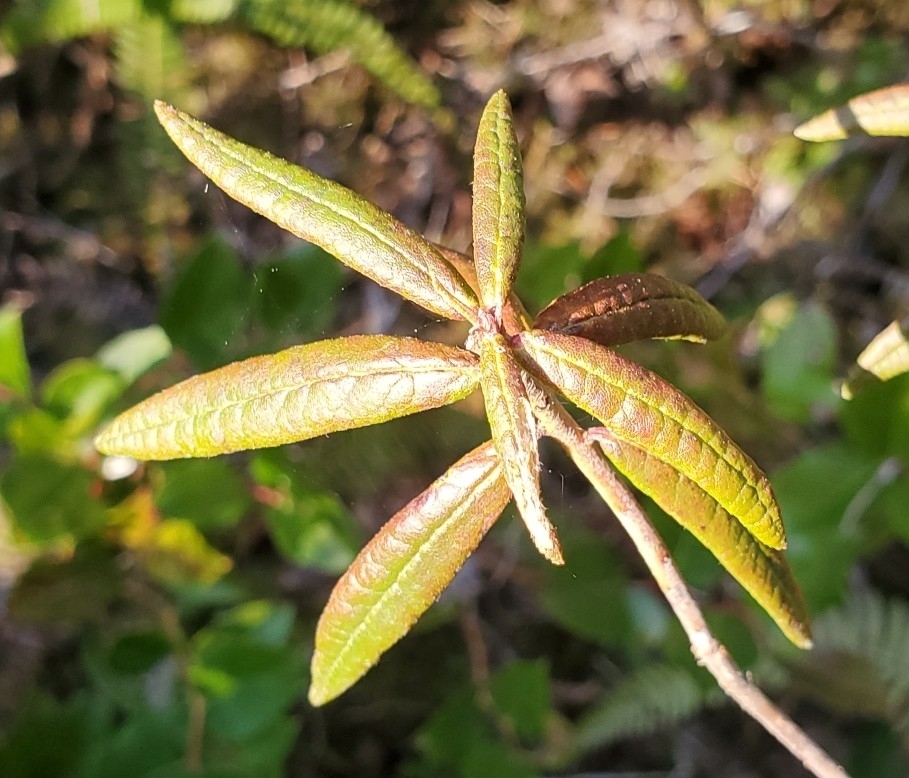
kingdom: Plantae
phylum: Tracheophyta
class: Magnoliopsida
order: Ericales
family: Ericaceae
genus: Rhododendron
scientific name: Rhododendron groenlandicum
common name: Bog labrador tea
